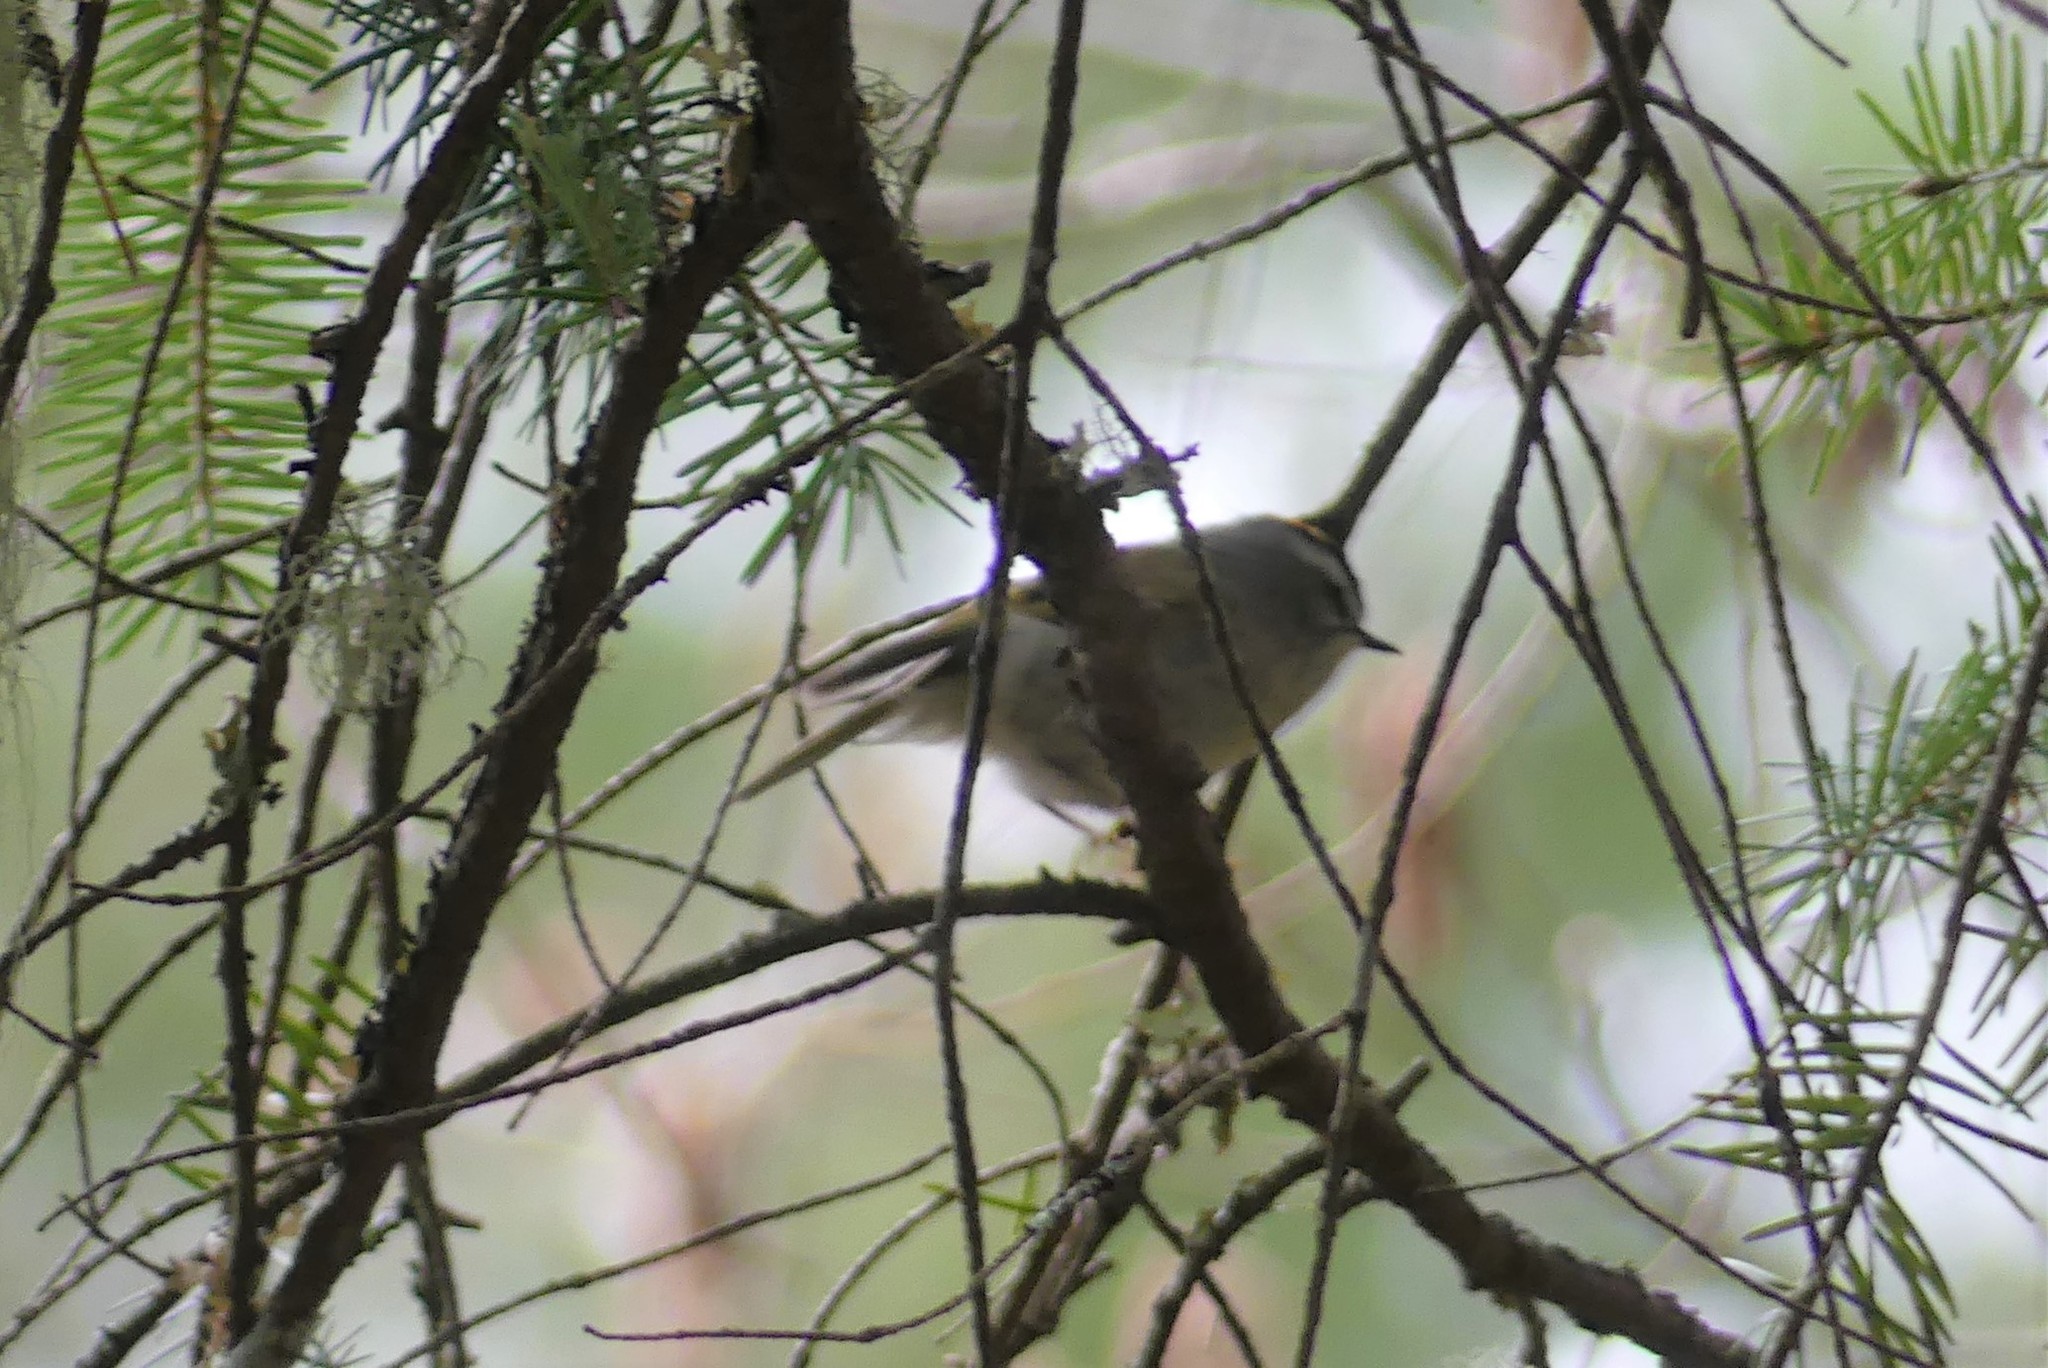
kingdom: Animalia
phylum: Chordata
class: Aves
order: Passeriformes
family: Regulidae
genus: Regulus
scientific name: Regulus satrapa
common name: Golden-crowned kinglet
